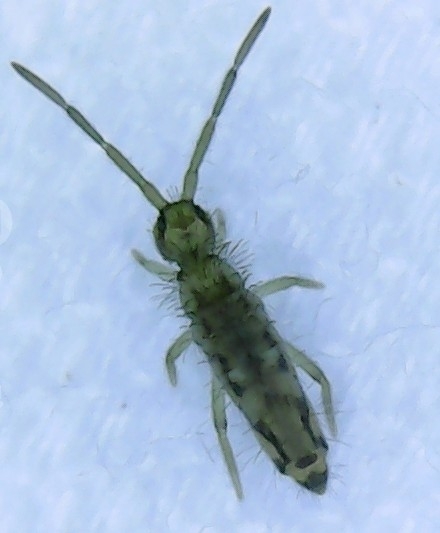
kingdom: Animalia
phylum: Arthropoda
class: Collembola
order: Entomobryomorpha
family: Entomobryidae
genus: Entomobrya
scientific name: Entomobrya katzi
